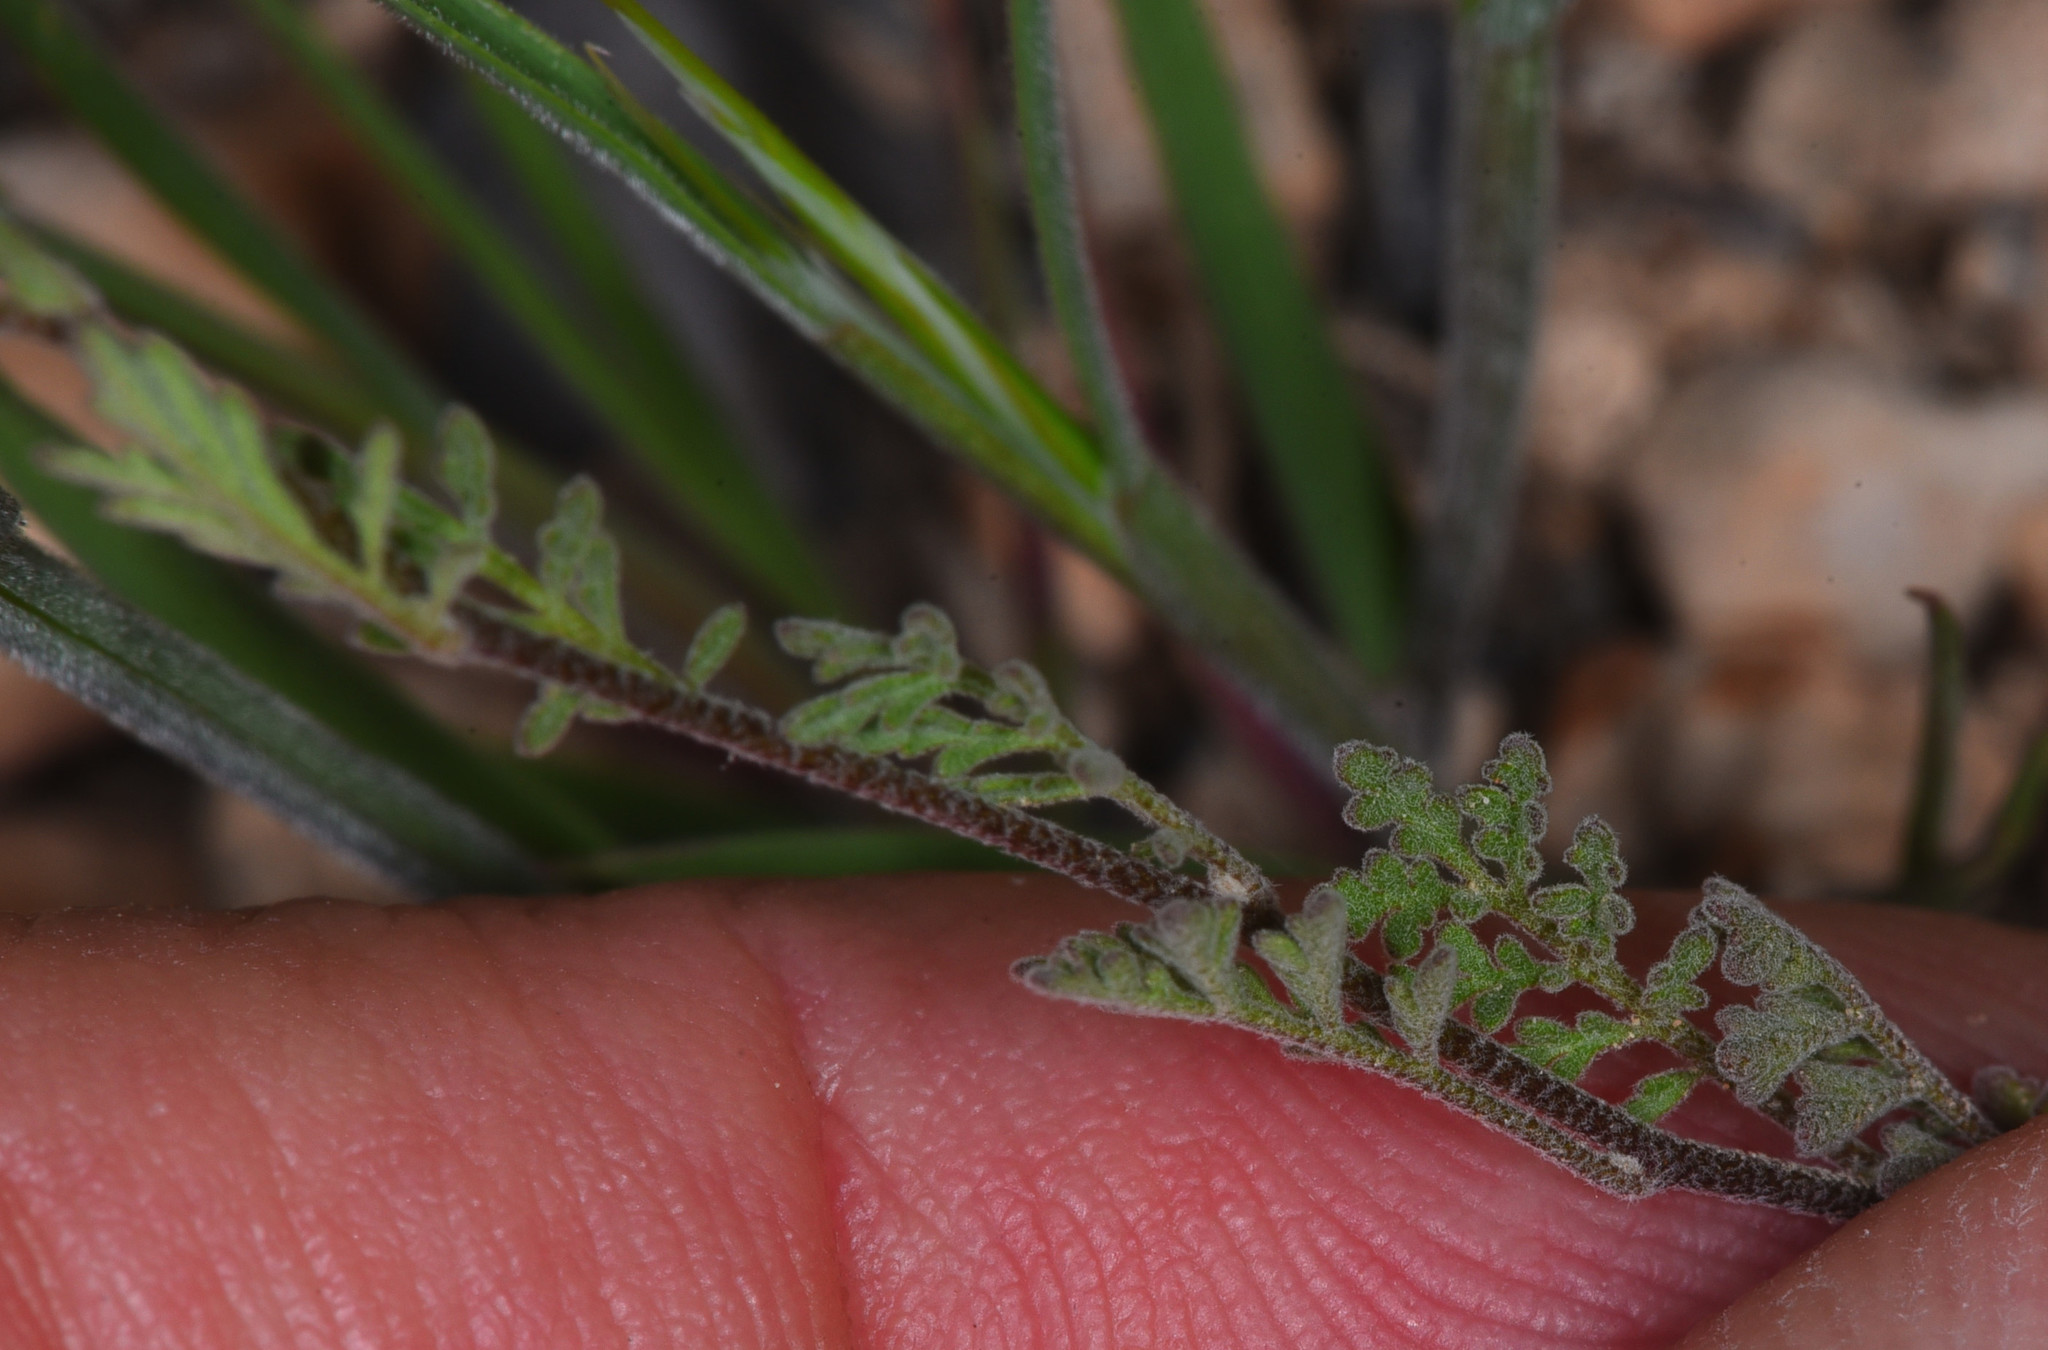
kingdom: Plantae
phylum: Tracheophyta
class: Magnoliopsida
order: Brassicales
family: Brassicaceae
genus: Descurainia
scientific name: Descurainia pinnata
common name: Western tansy mustard
